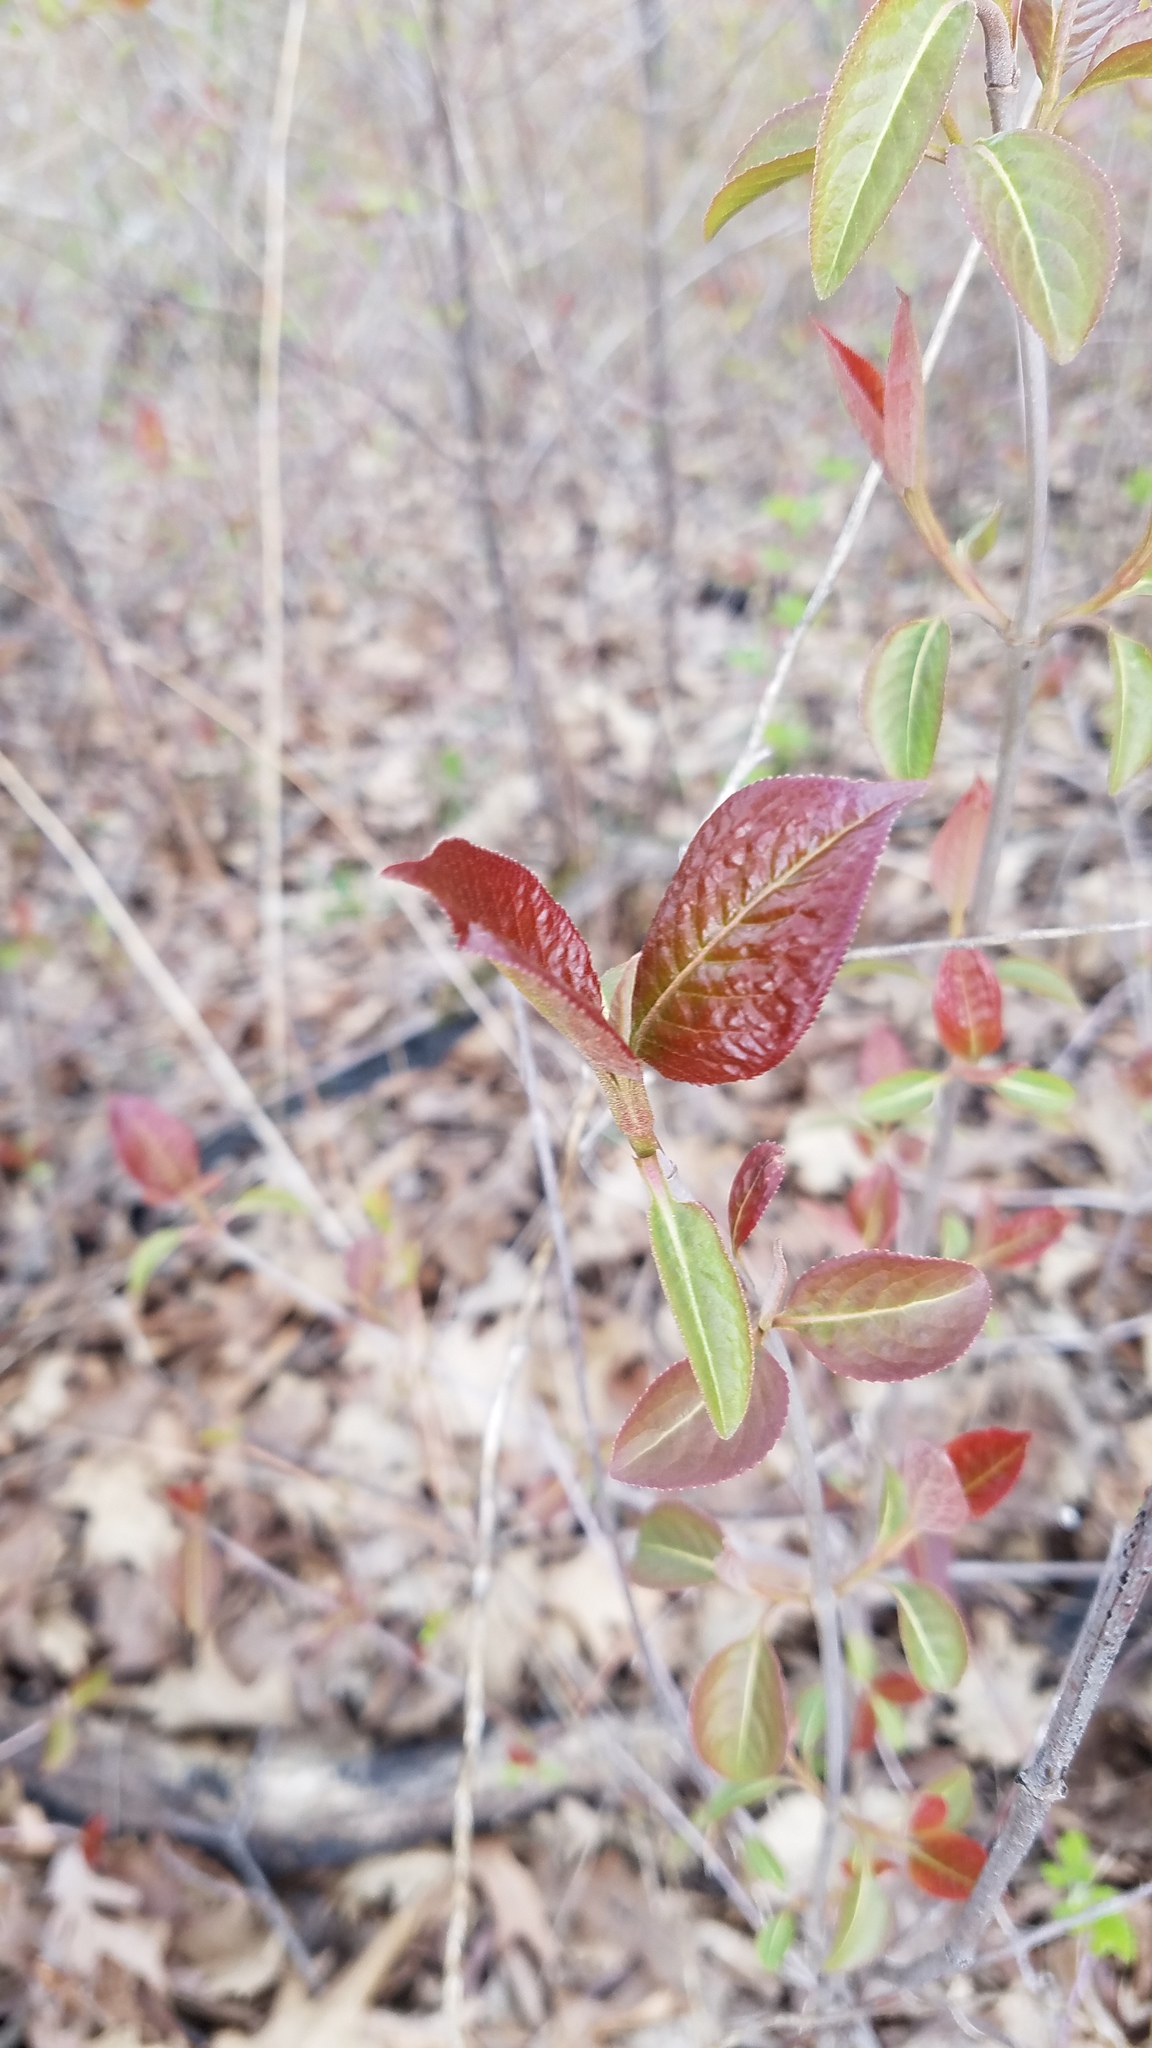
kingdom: Plantae
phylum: Tracheophyta
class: Magnoliopsida
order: Dipsacales
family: Viburnaceae
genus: Viburnum
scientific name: Viburnum lentago
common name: Black haw
